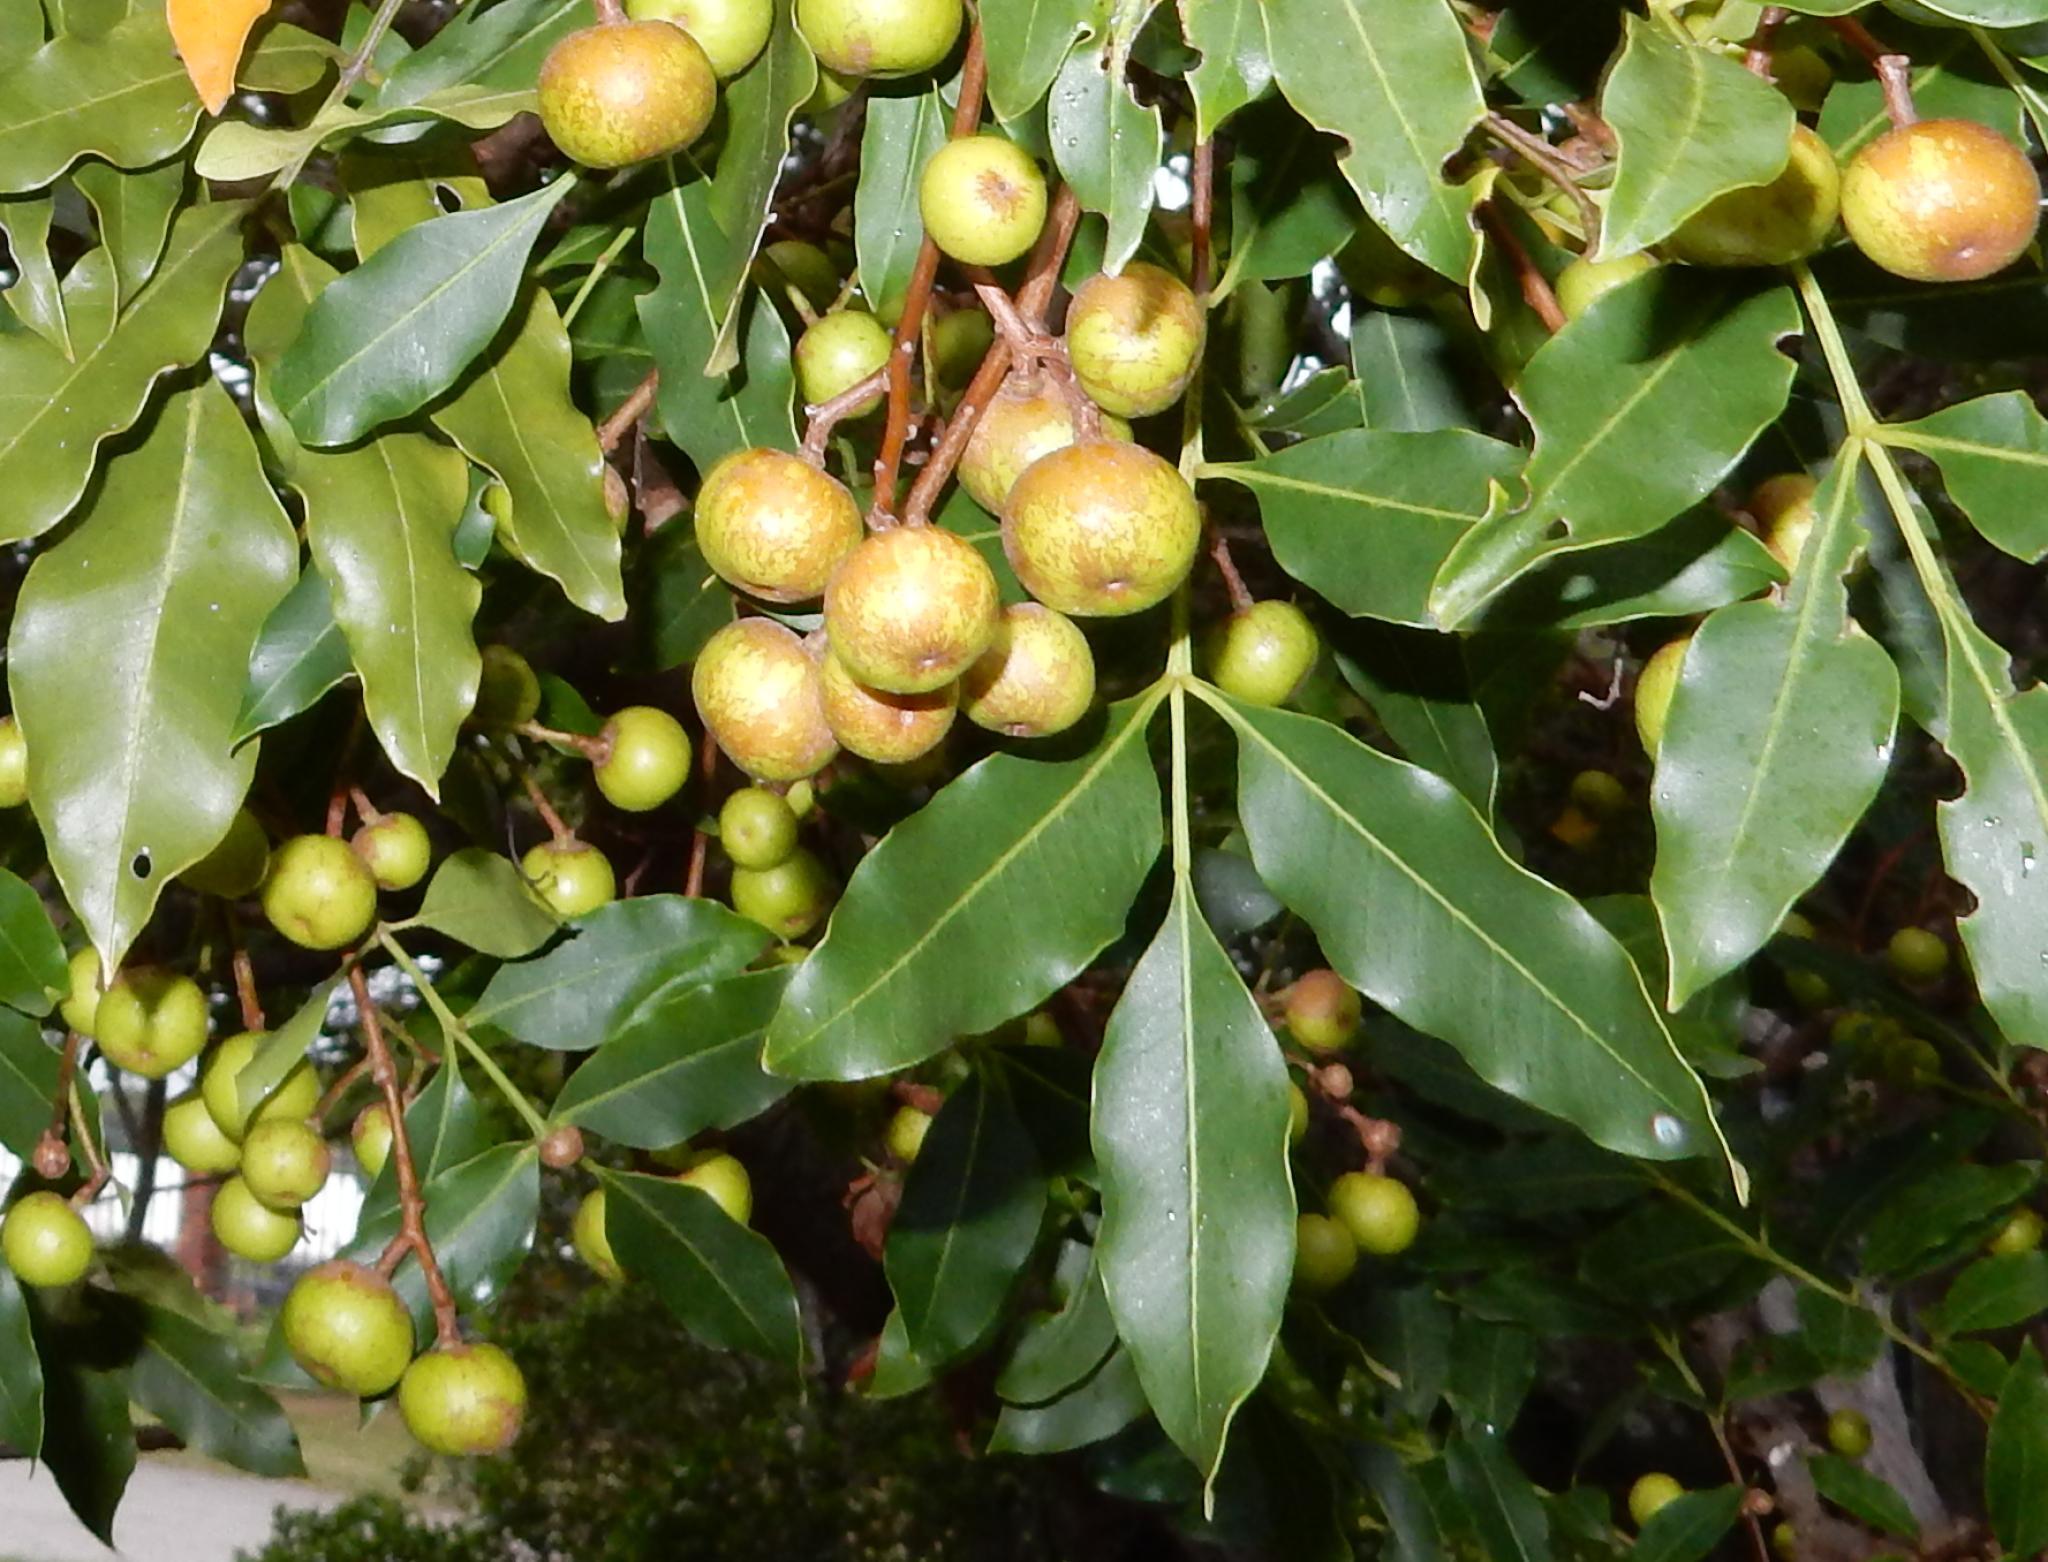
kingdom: Plantae
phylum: Tracheophyta
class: Magnoliopsida
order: Sapindales
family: Meliaceae
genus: Ekebergia
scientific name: Ekebergia capensis
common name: Cape-ash
